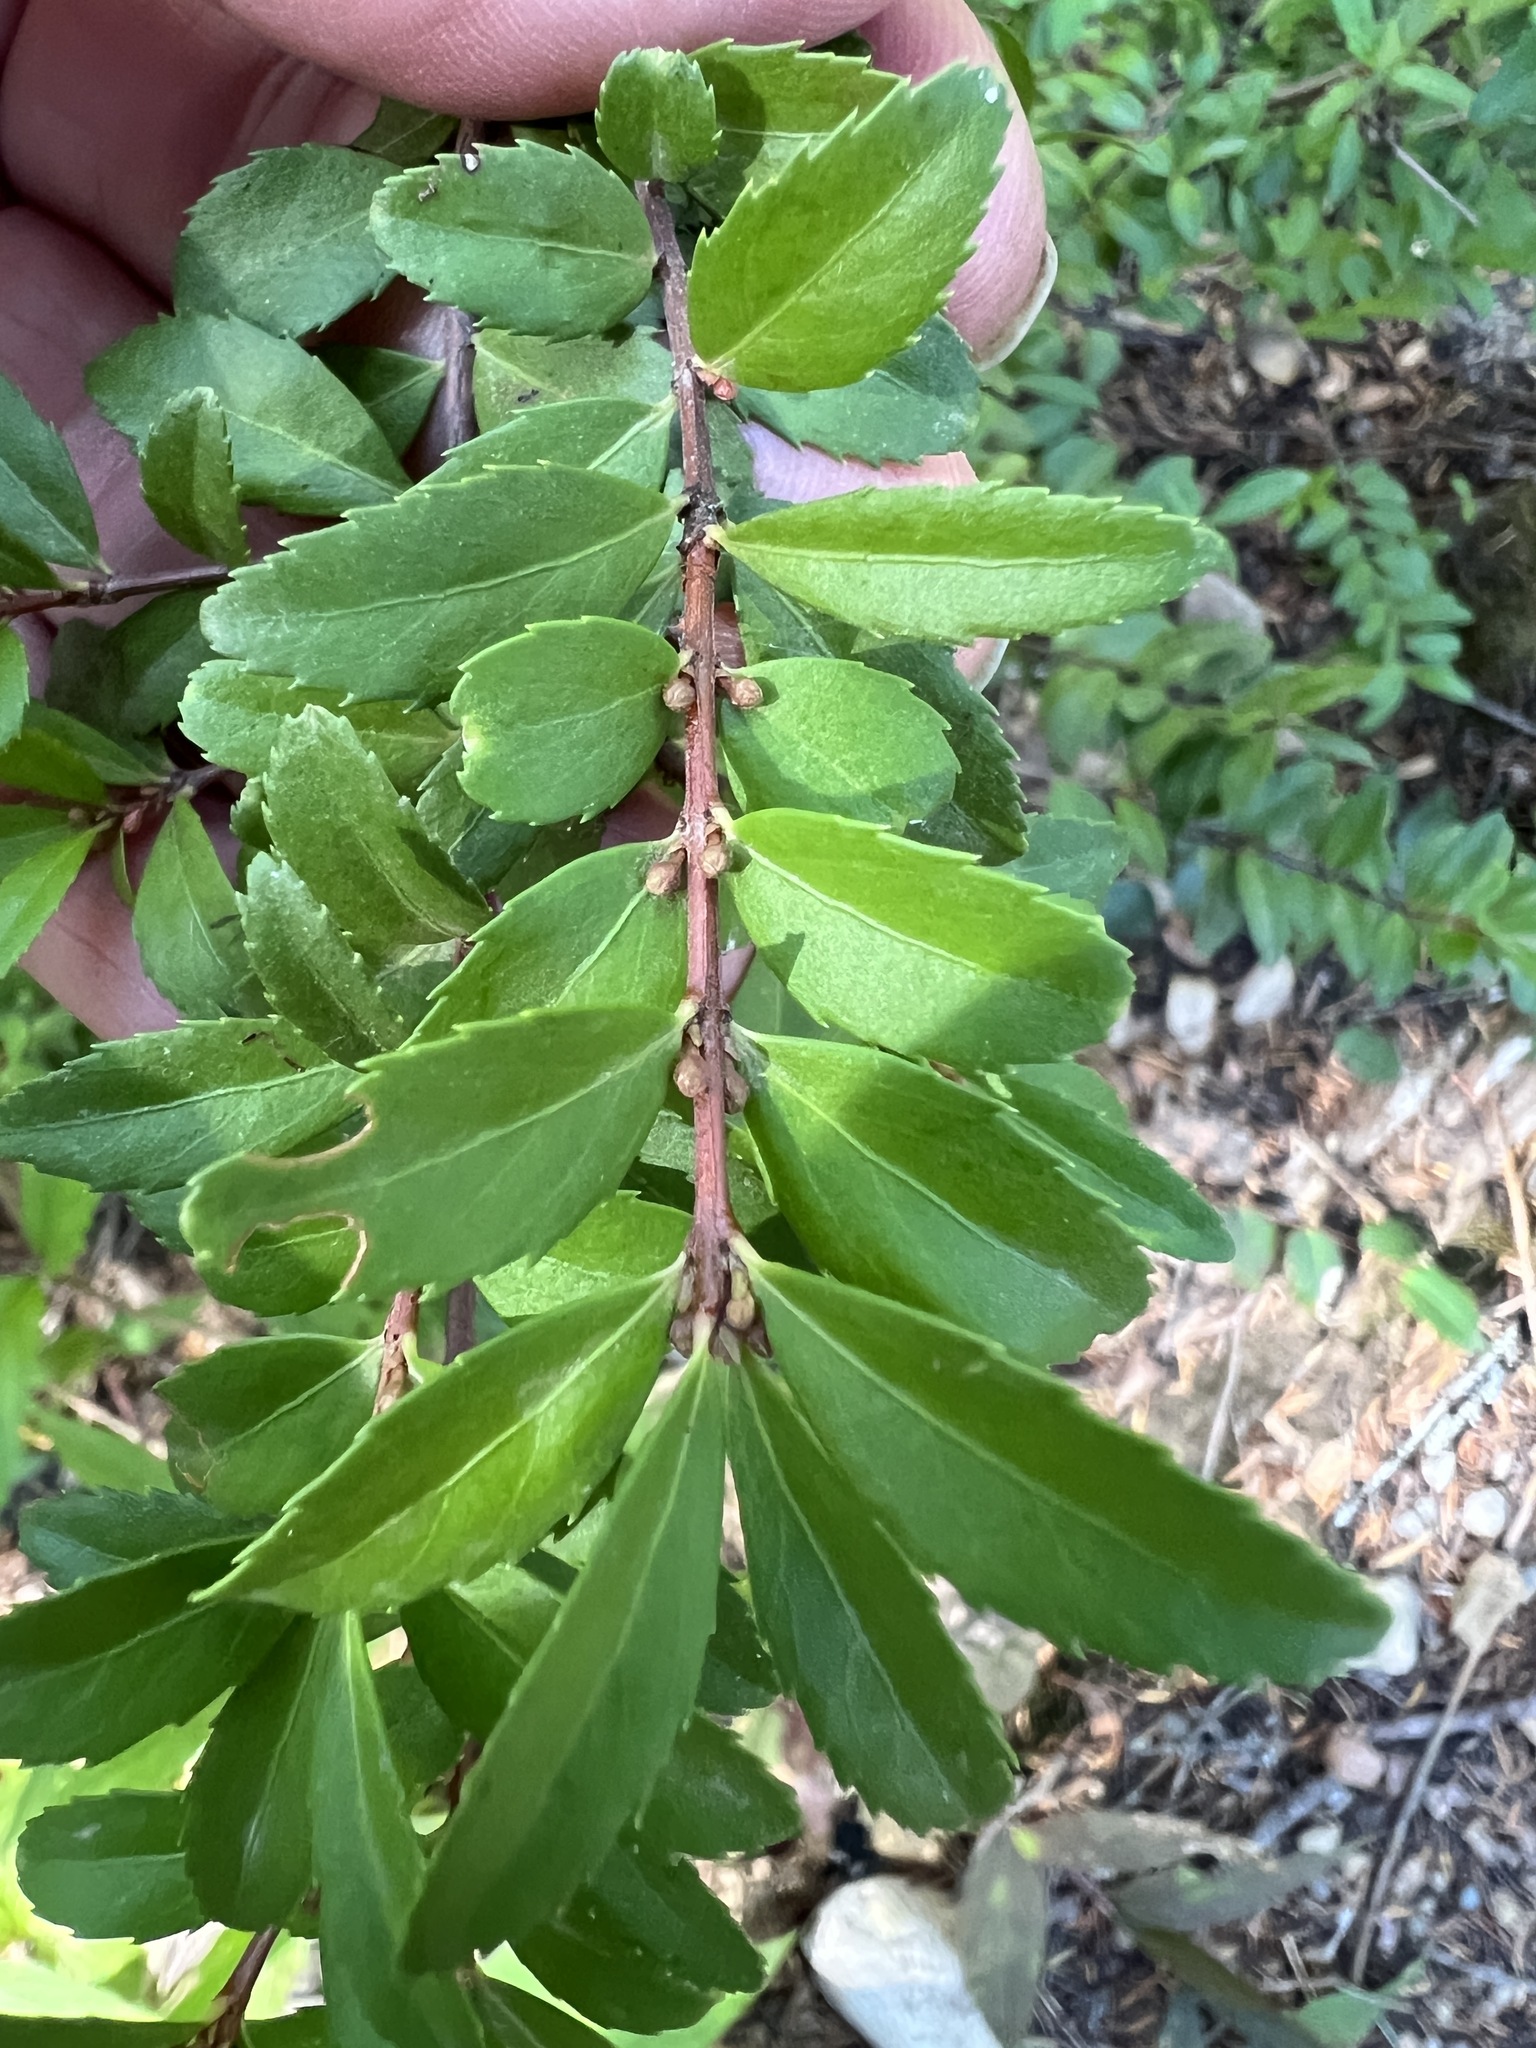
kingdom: Plantae
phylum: Tracheophyta
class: Magnoliopsida
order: Celastrales
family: Celastraceae
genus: Paxistima
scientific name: Paxistima myrsinites
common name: Mountain-lover
